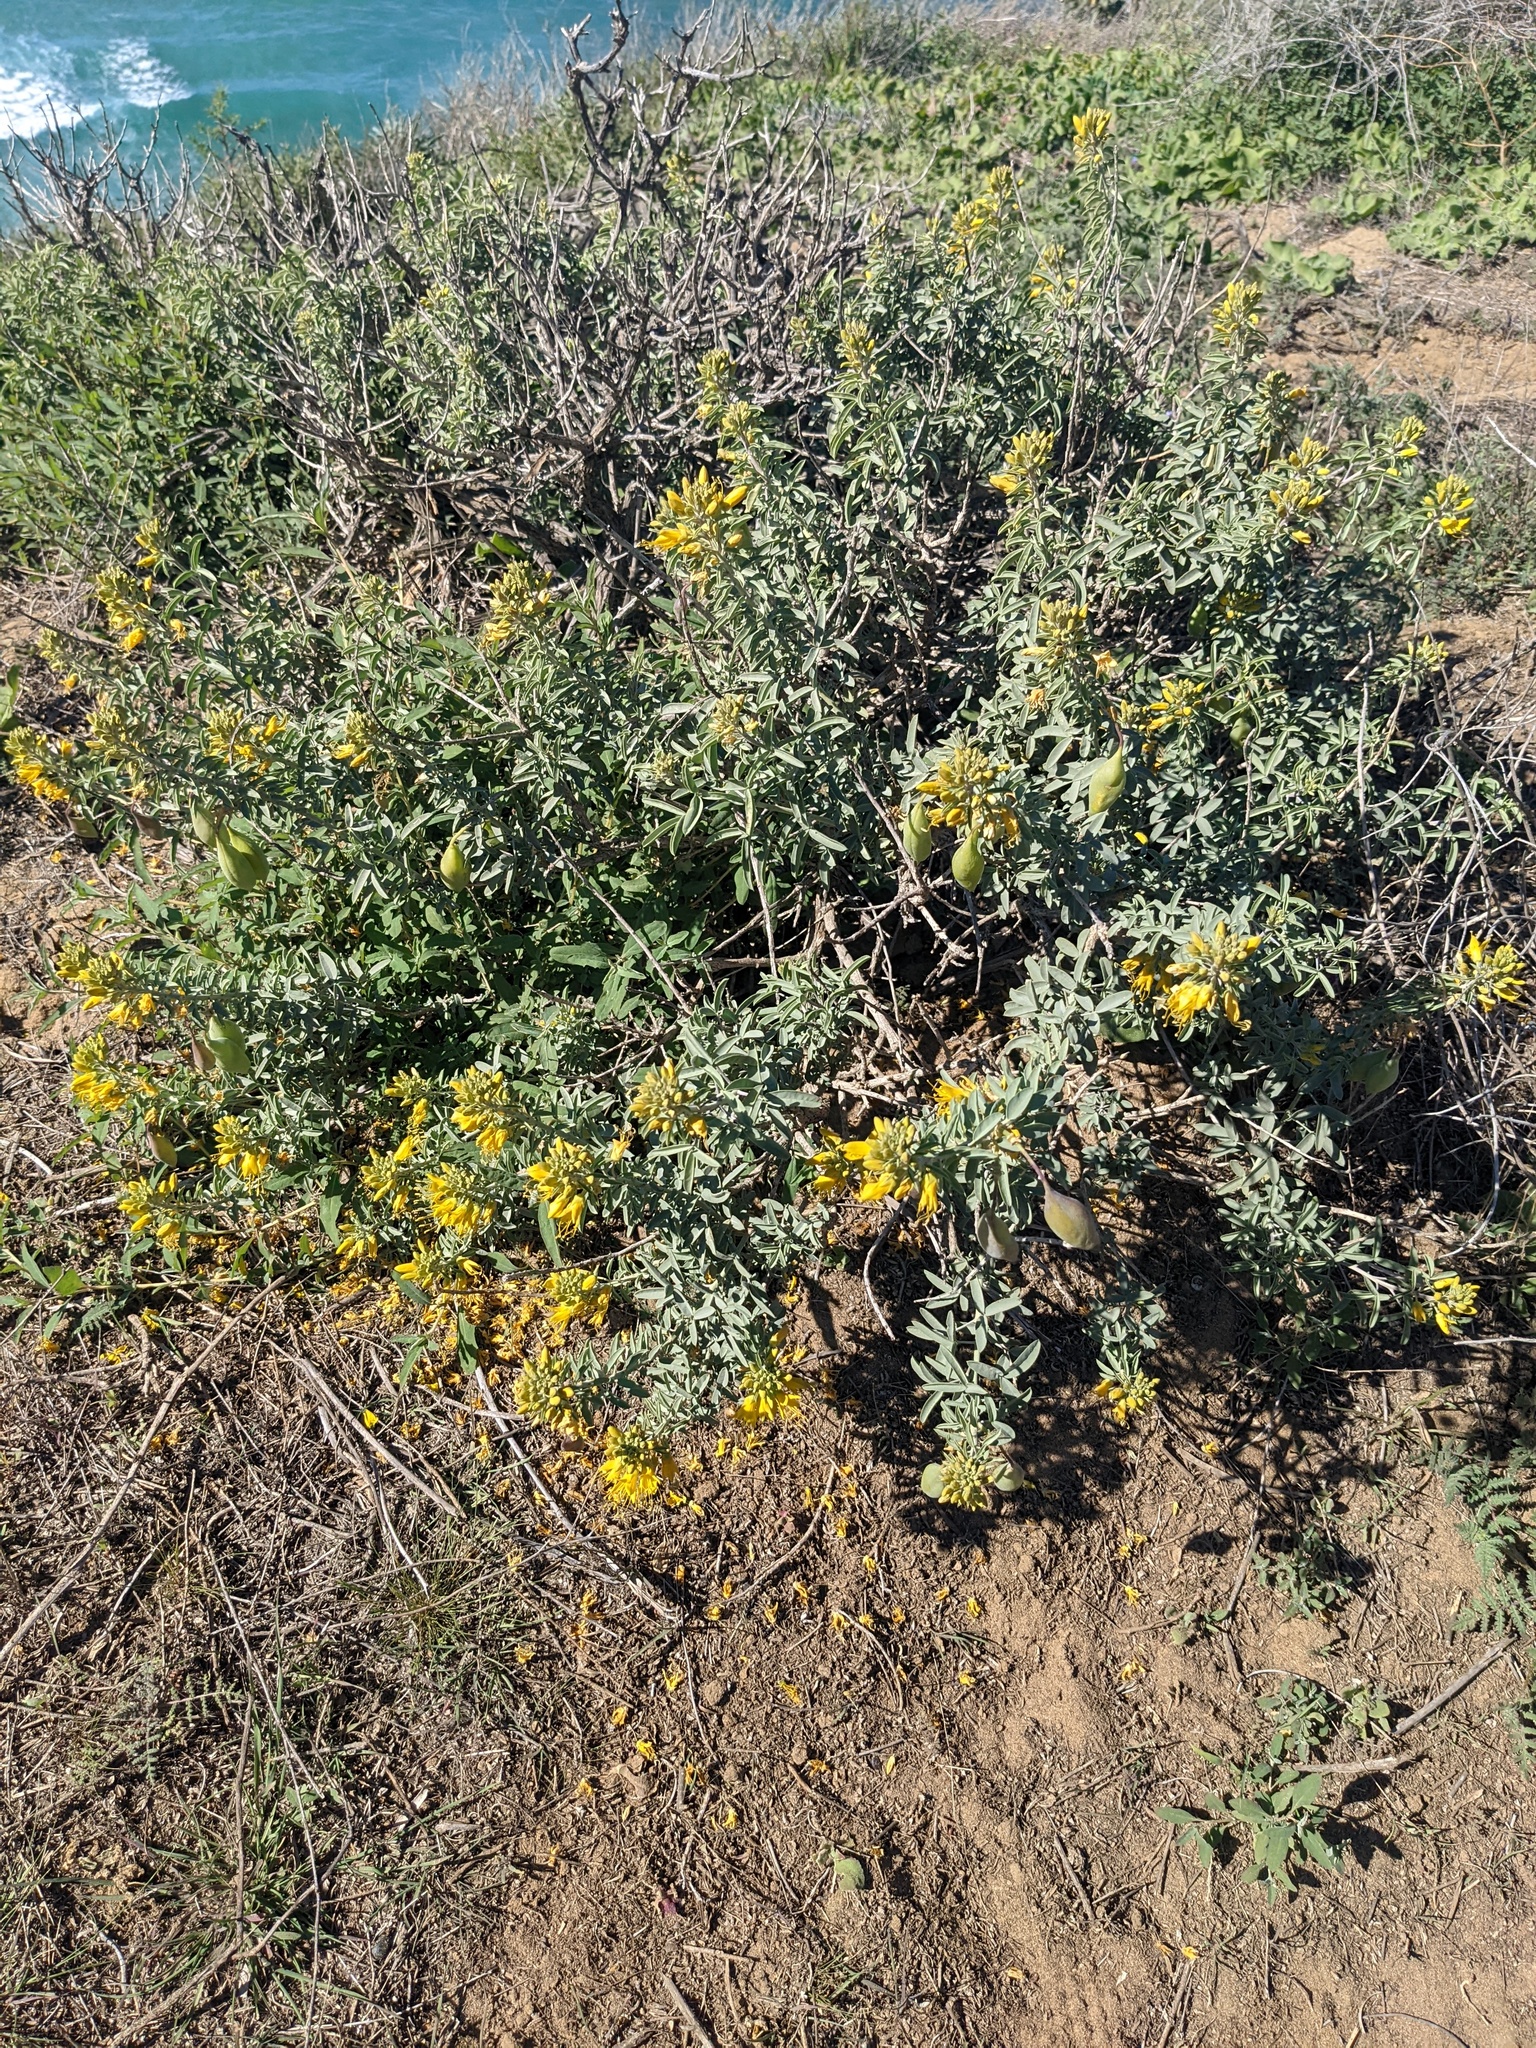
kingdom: Plantae
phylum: Tracheophyta
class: Magnoliopsida
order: Brassicales
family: Cleomaceae
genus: Cleomella
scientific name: Cleomella arborea
